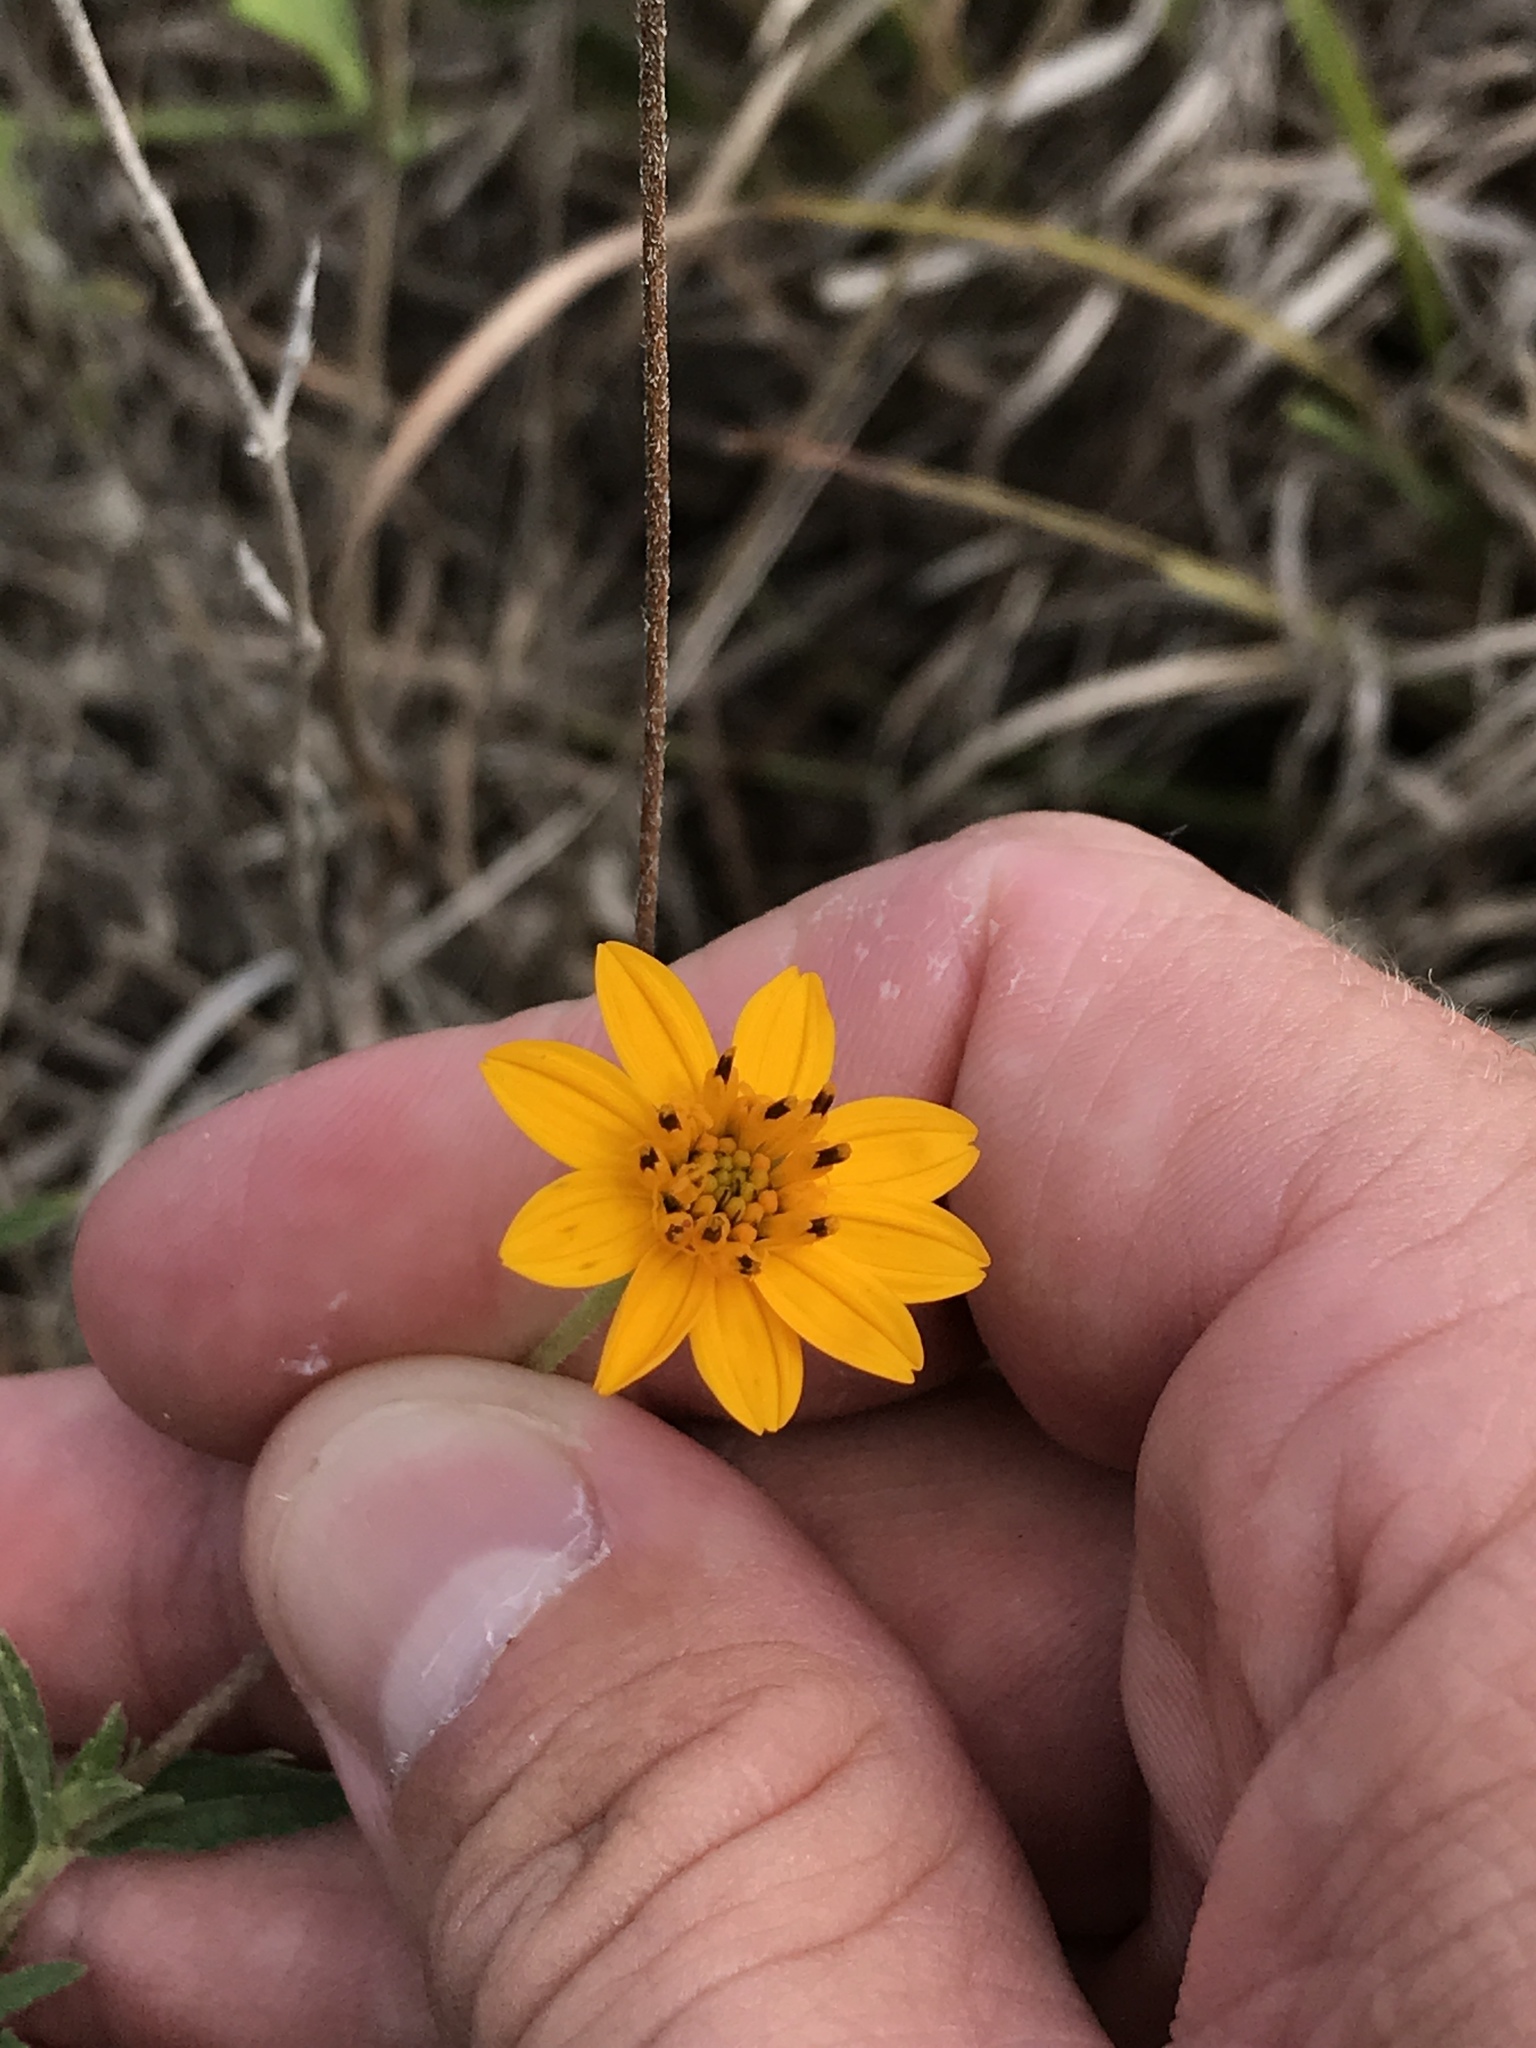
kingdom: Plantae
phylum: Tracheophyta
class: Magnoliopsida
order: Asterales
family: Asteraceae
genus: Wedelia
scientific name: Wedelia acapulcensis
